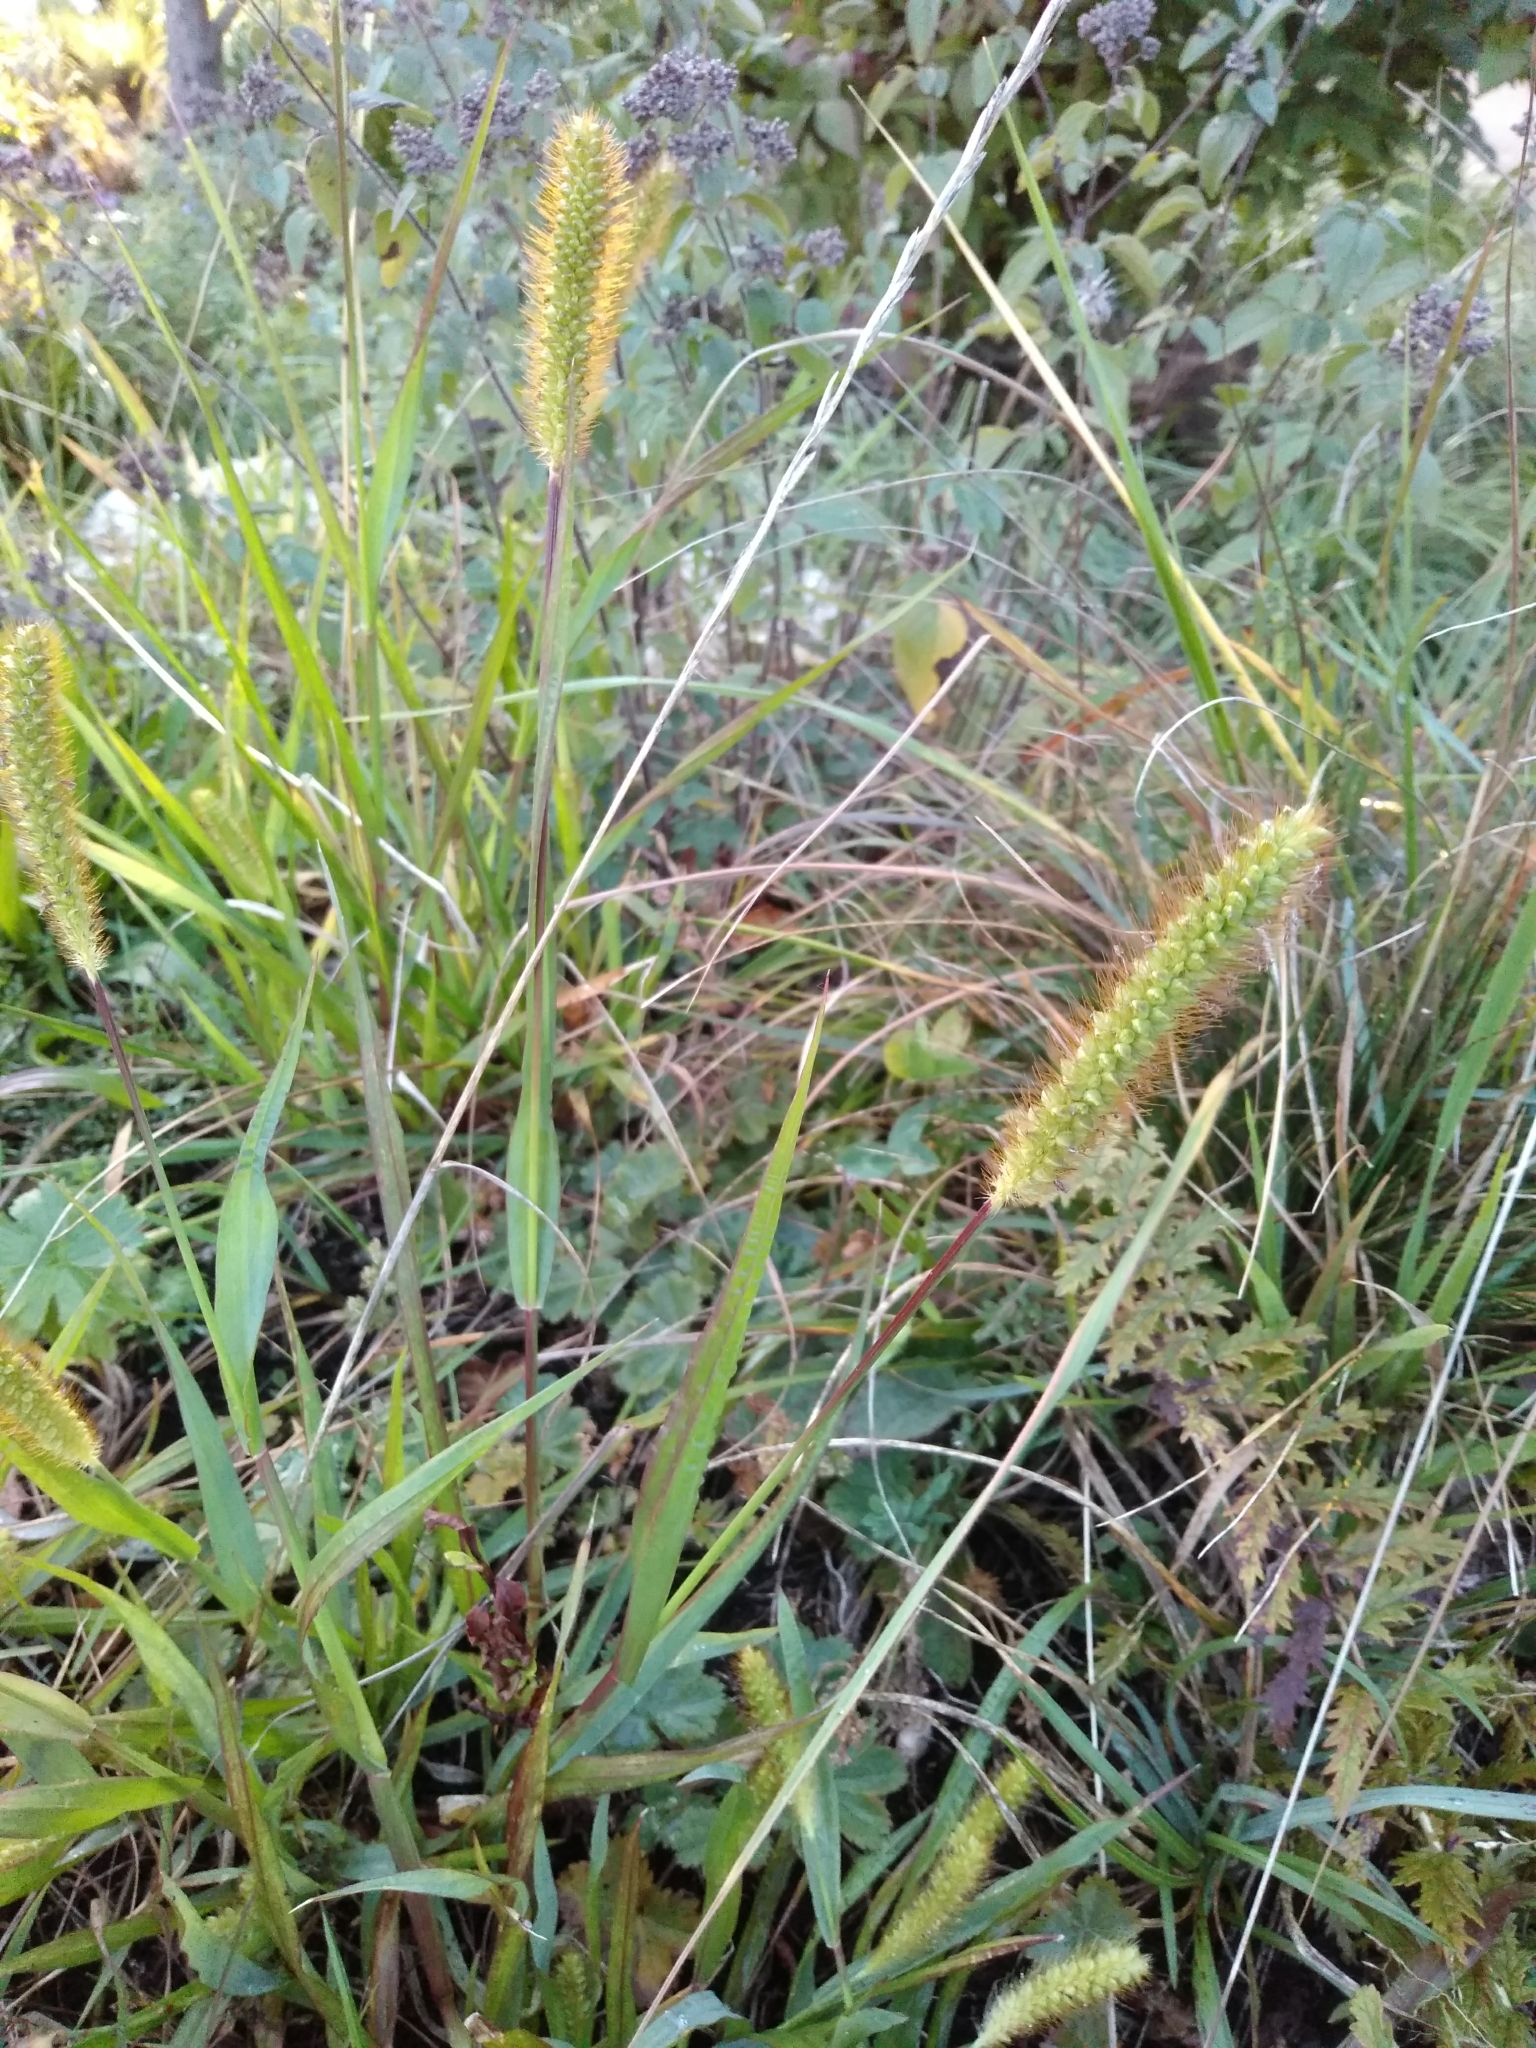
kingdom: Plantae
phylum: Tracheophyta
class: Liliopsida
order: Poales
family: Poaceae
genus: Setaria
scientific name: Setaria pumila
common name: Yellow bristle-grass
